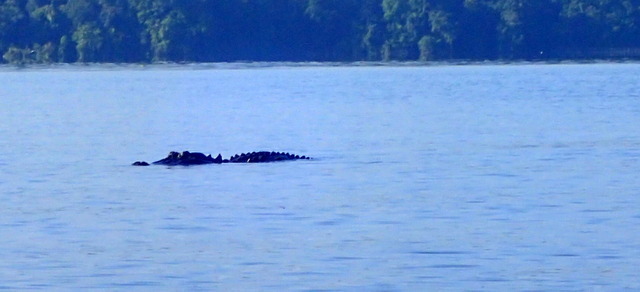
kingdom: Animalia
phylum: Chordata
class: Crocodylia
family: Alligatoridae
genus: Alligator
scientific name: Alligator mississippiensis
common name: American alligator
